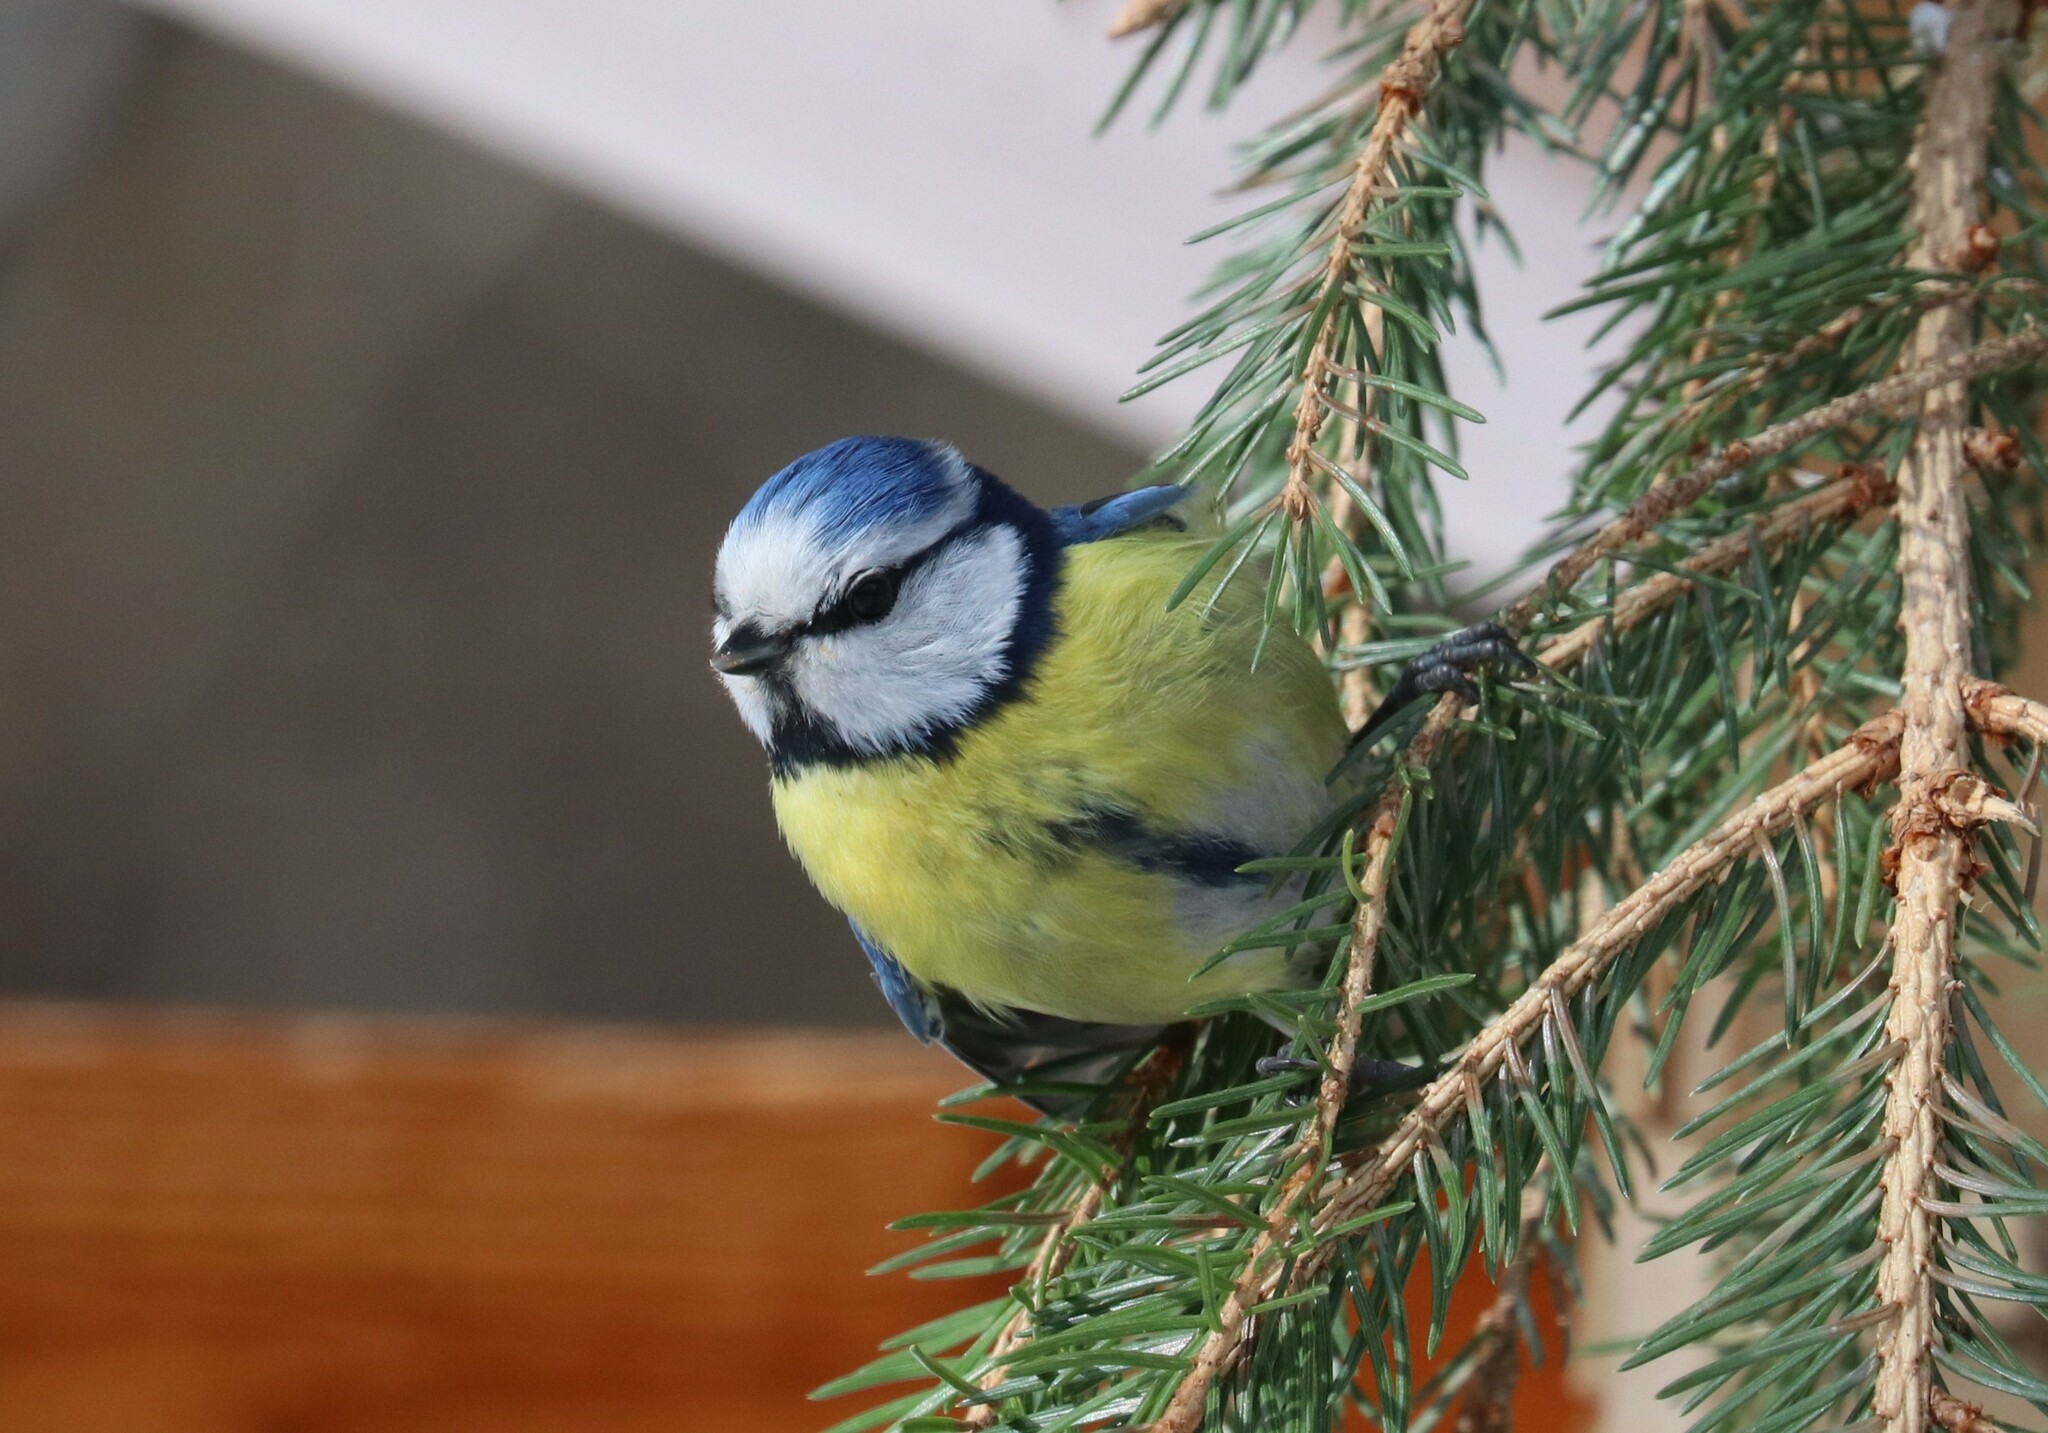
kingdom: Animalia
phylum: Chordata
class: Aves
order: Passeriformes
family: Paridae
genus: Cyanistes
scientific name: Cyanistes caeruleus
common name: Eurasian blue tit
